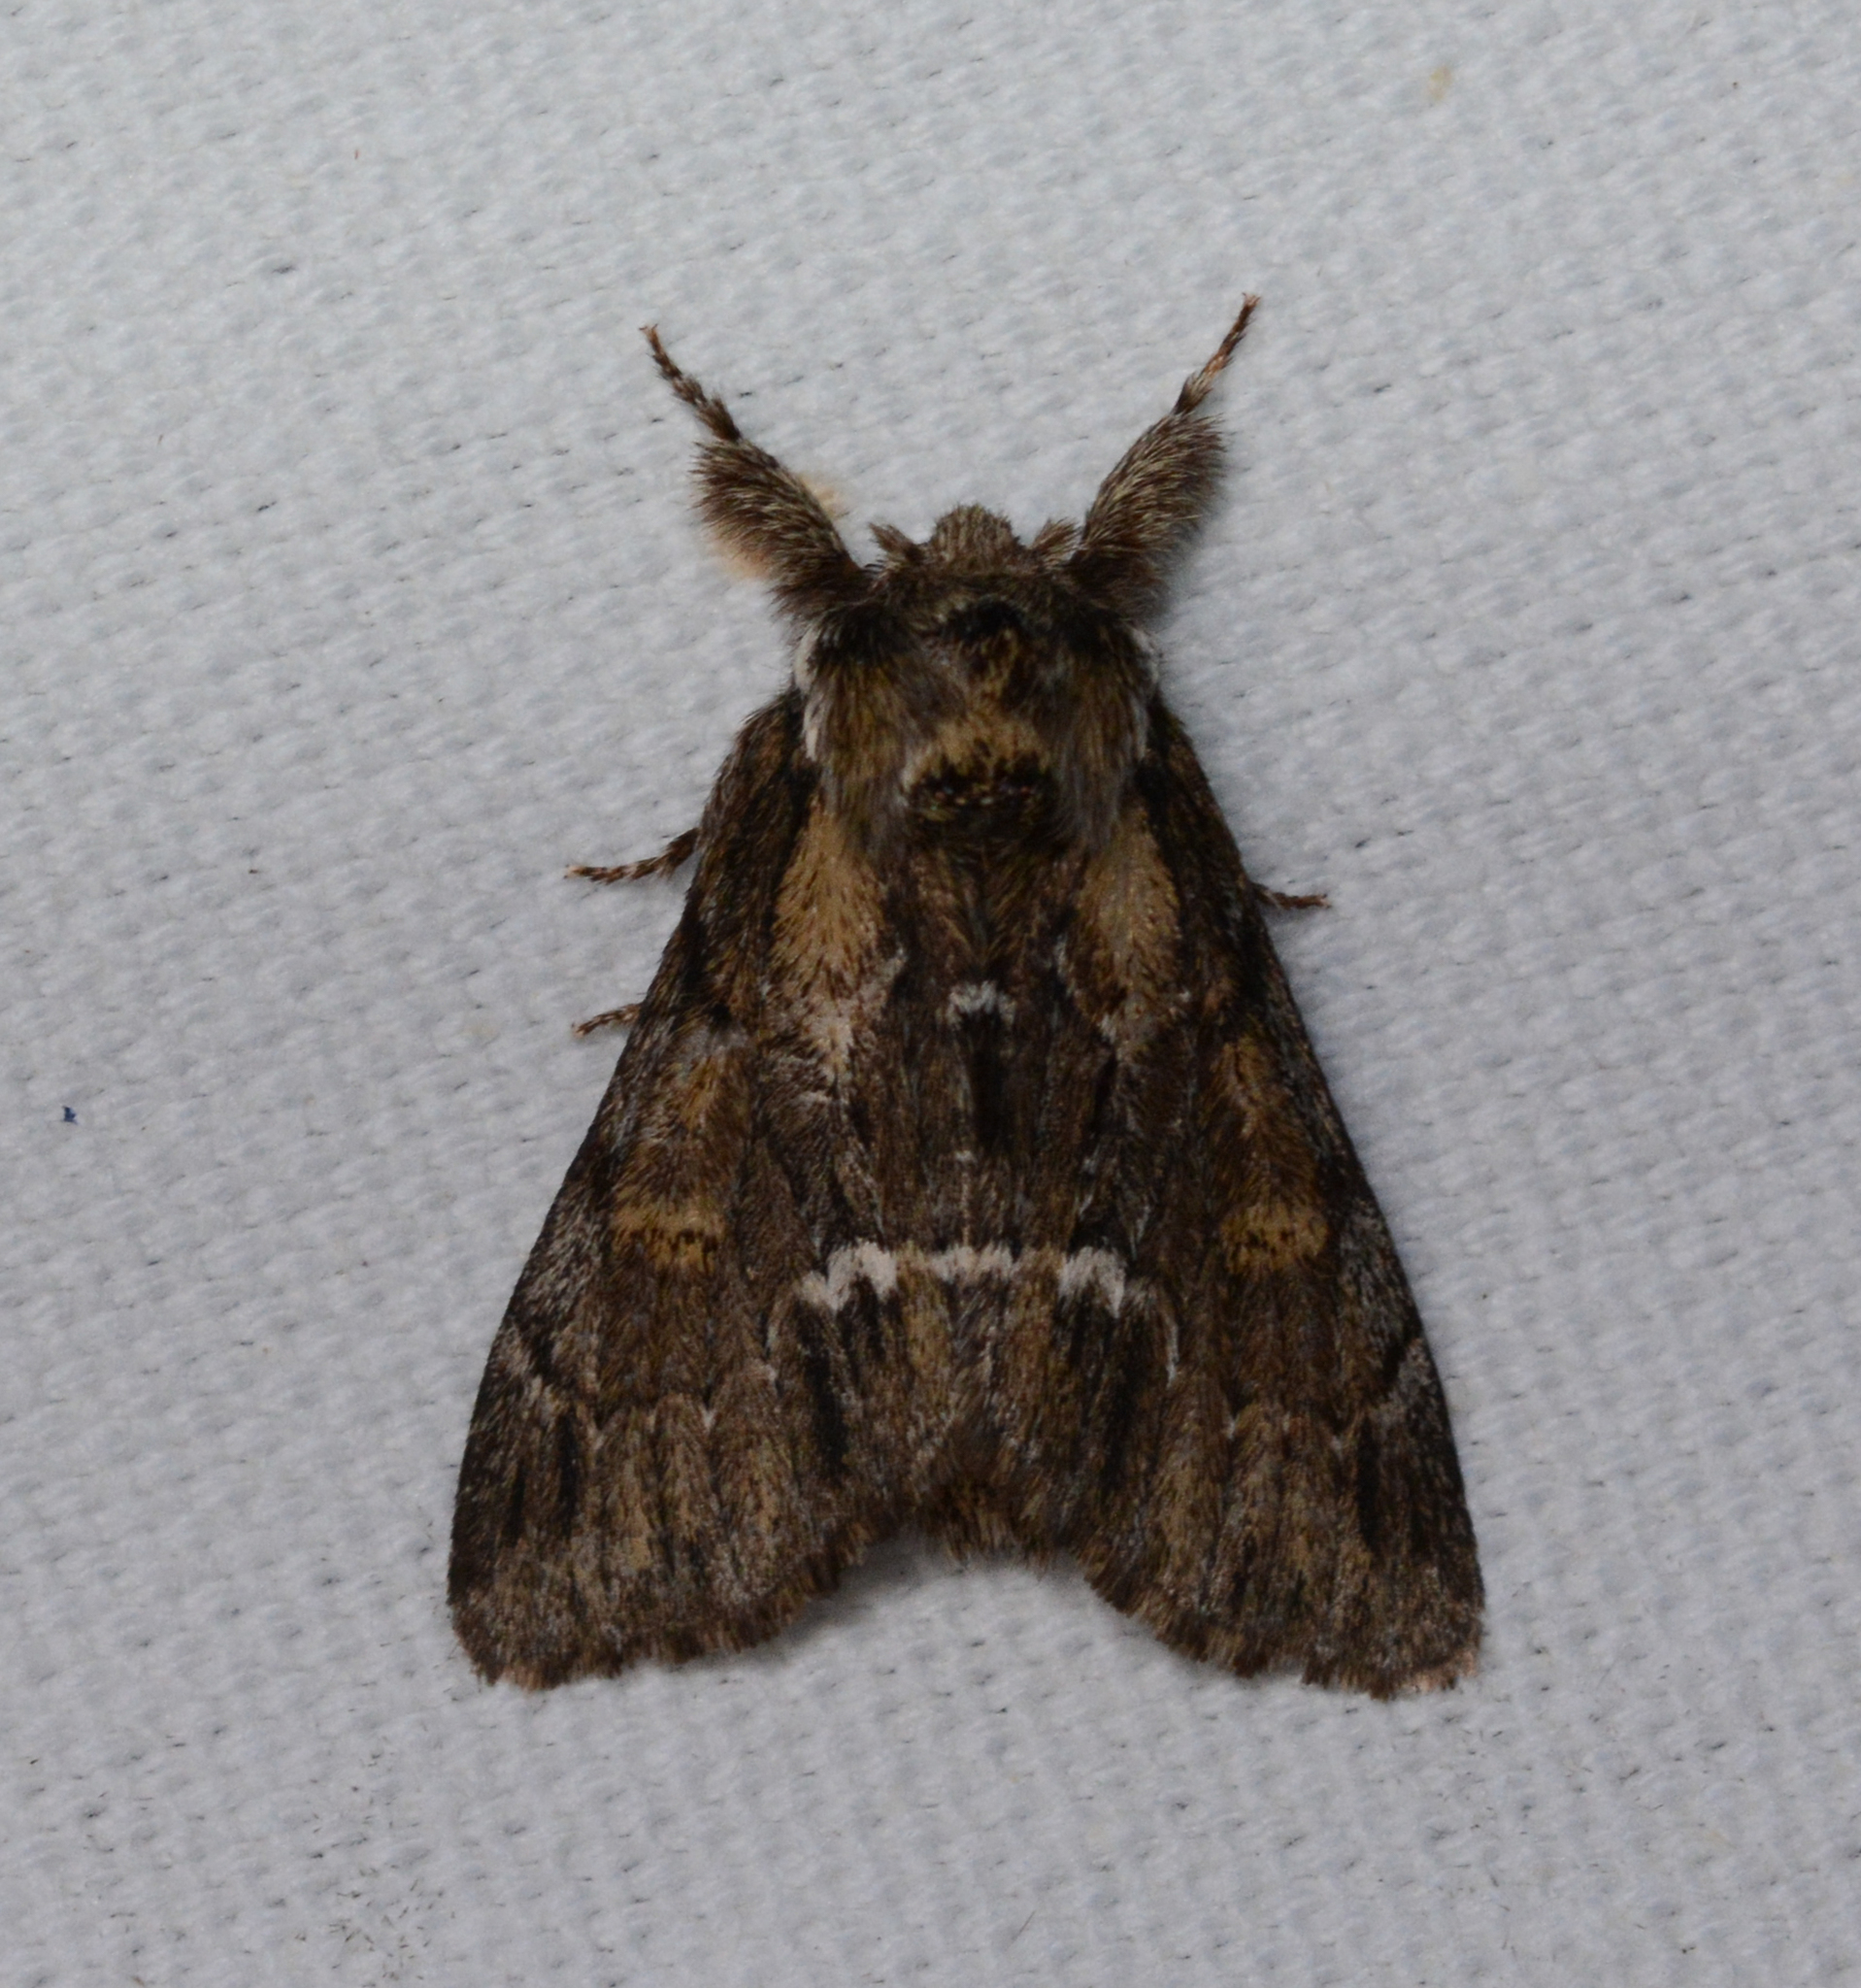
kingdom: Animalia
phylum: Arthropoda
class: Insecta
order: Lepidoptera
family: Notodontidae
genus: Paraeschra
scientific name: Paraeschra georgica
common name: Georgian prominent
